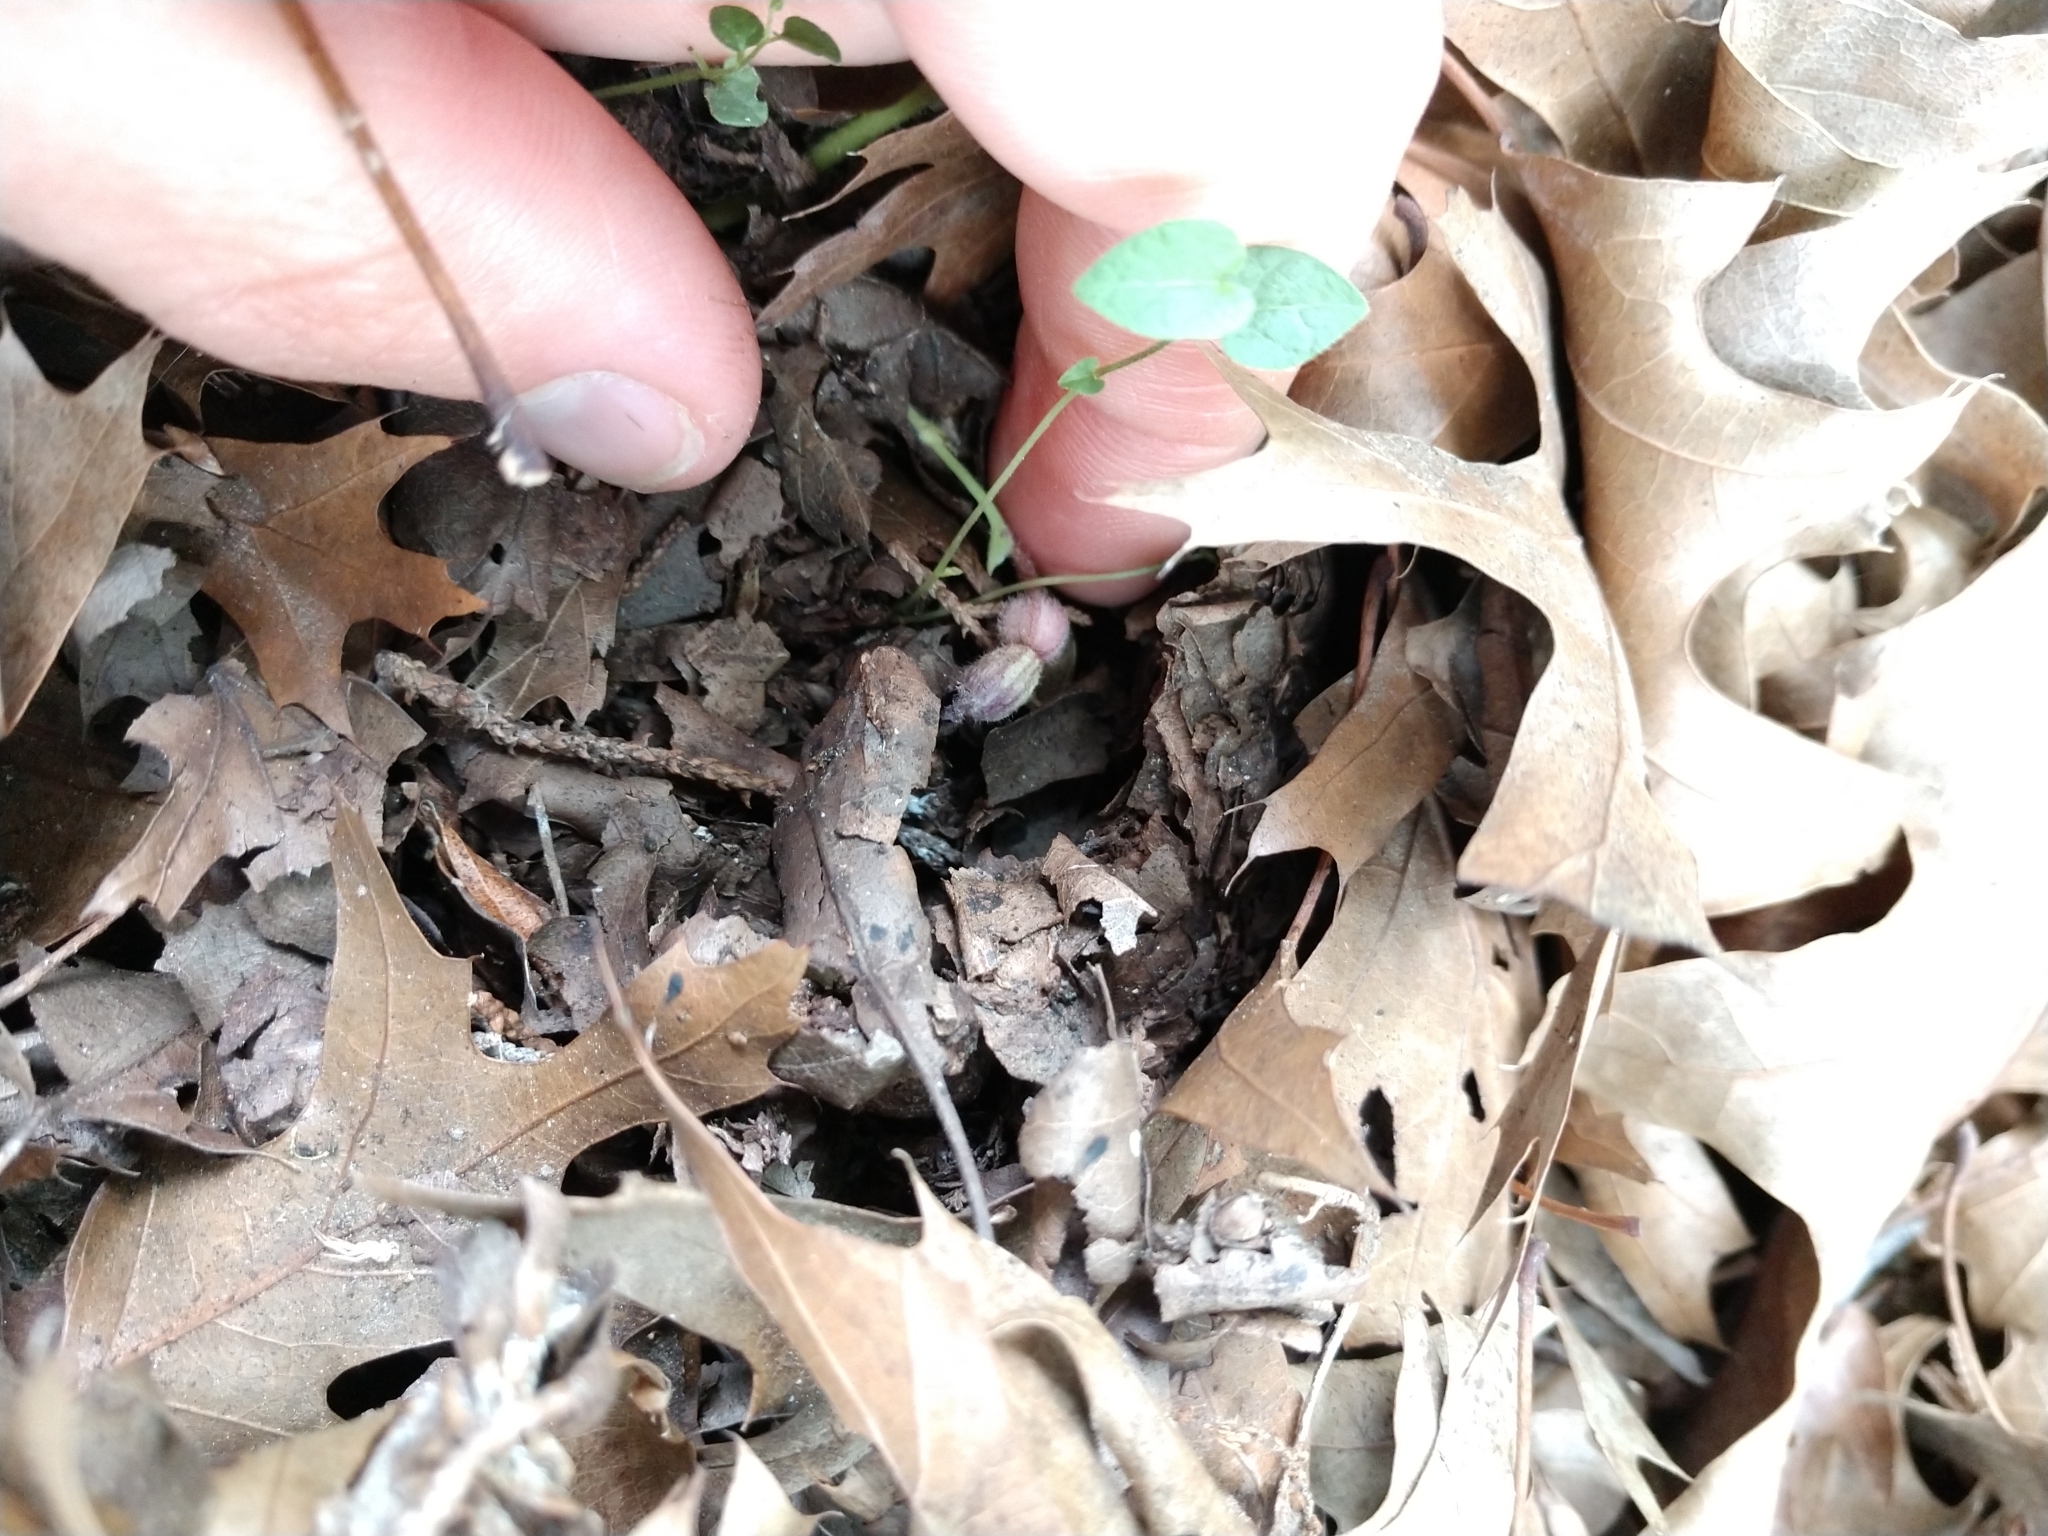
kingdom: Plantae
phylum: Tracheophyta
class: Magnoliopsida
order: Piperales
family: Aristolochiaceae
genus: Endodeca
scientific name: Endodeca serpentaria
